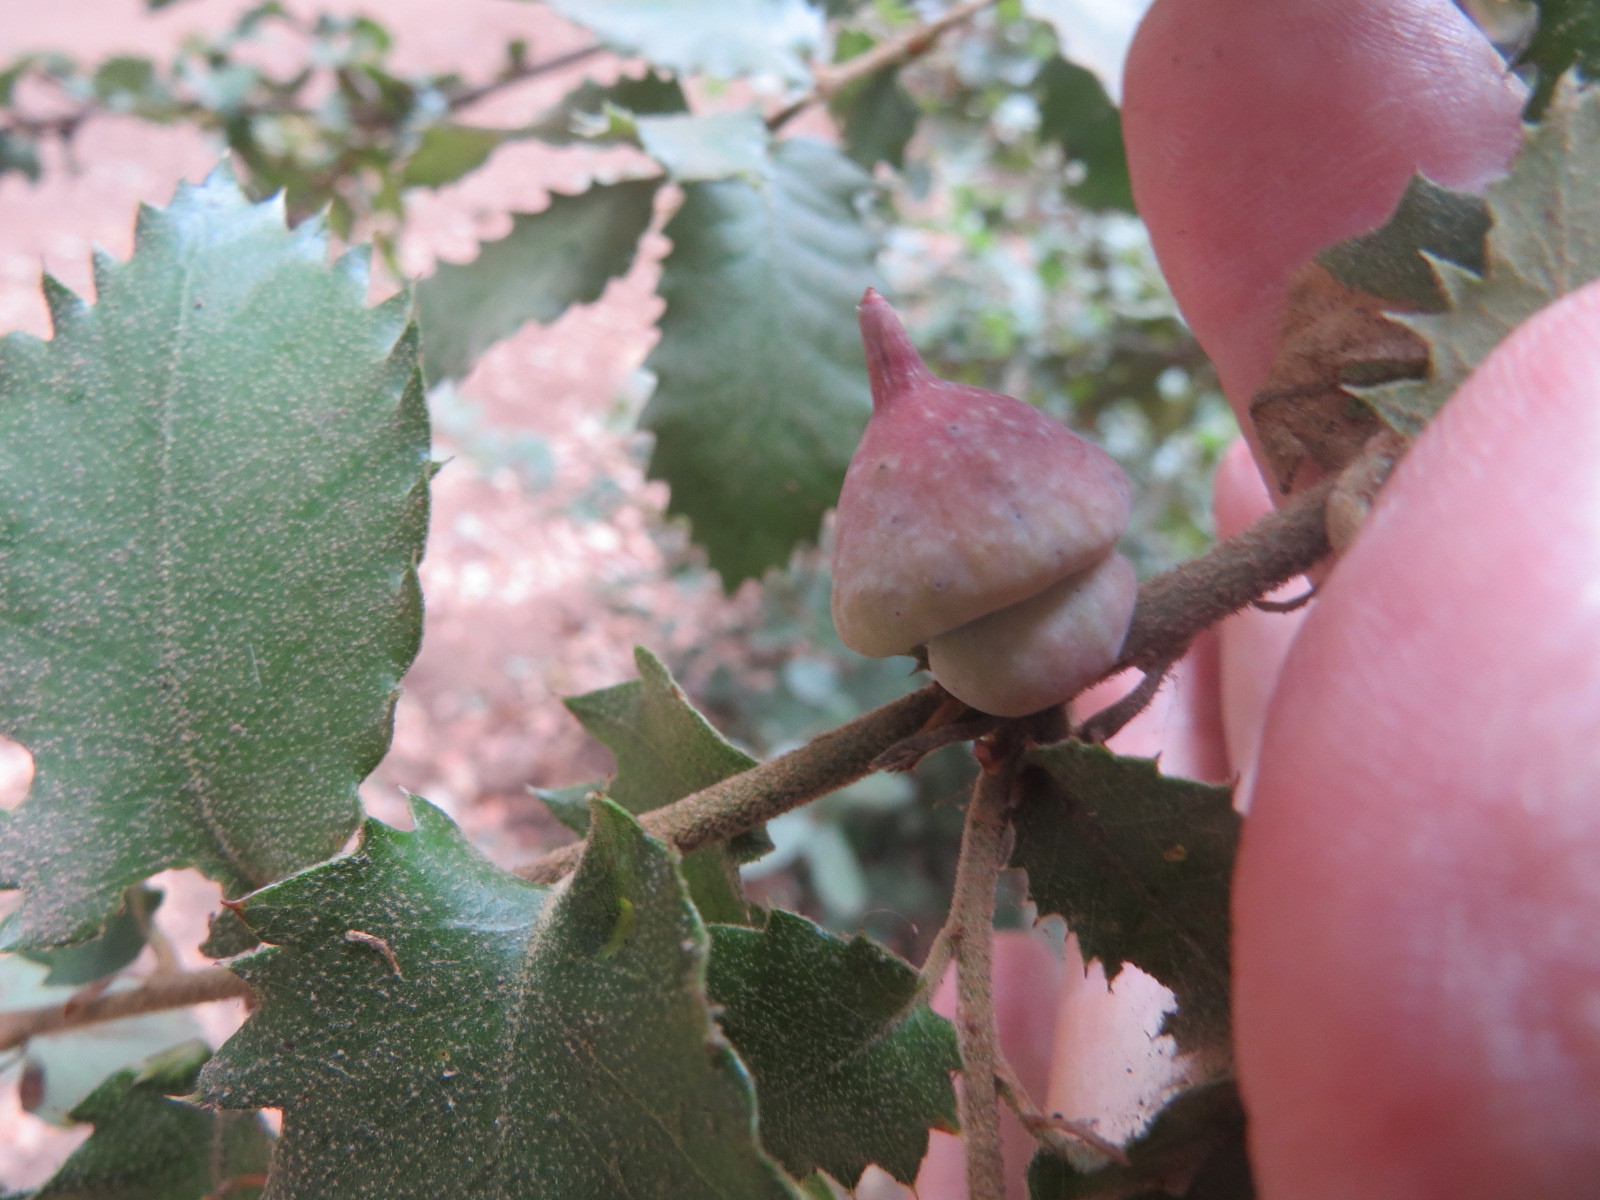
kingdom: Animalia
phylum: Arthropoda
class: Insecta
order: Hymenoptera
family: Cynipidae
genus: Heteroecus
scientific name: Heteroecus
